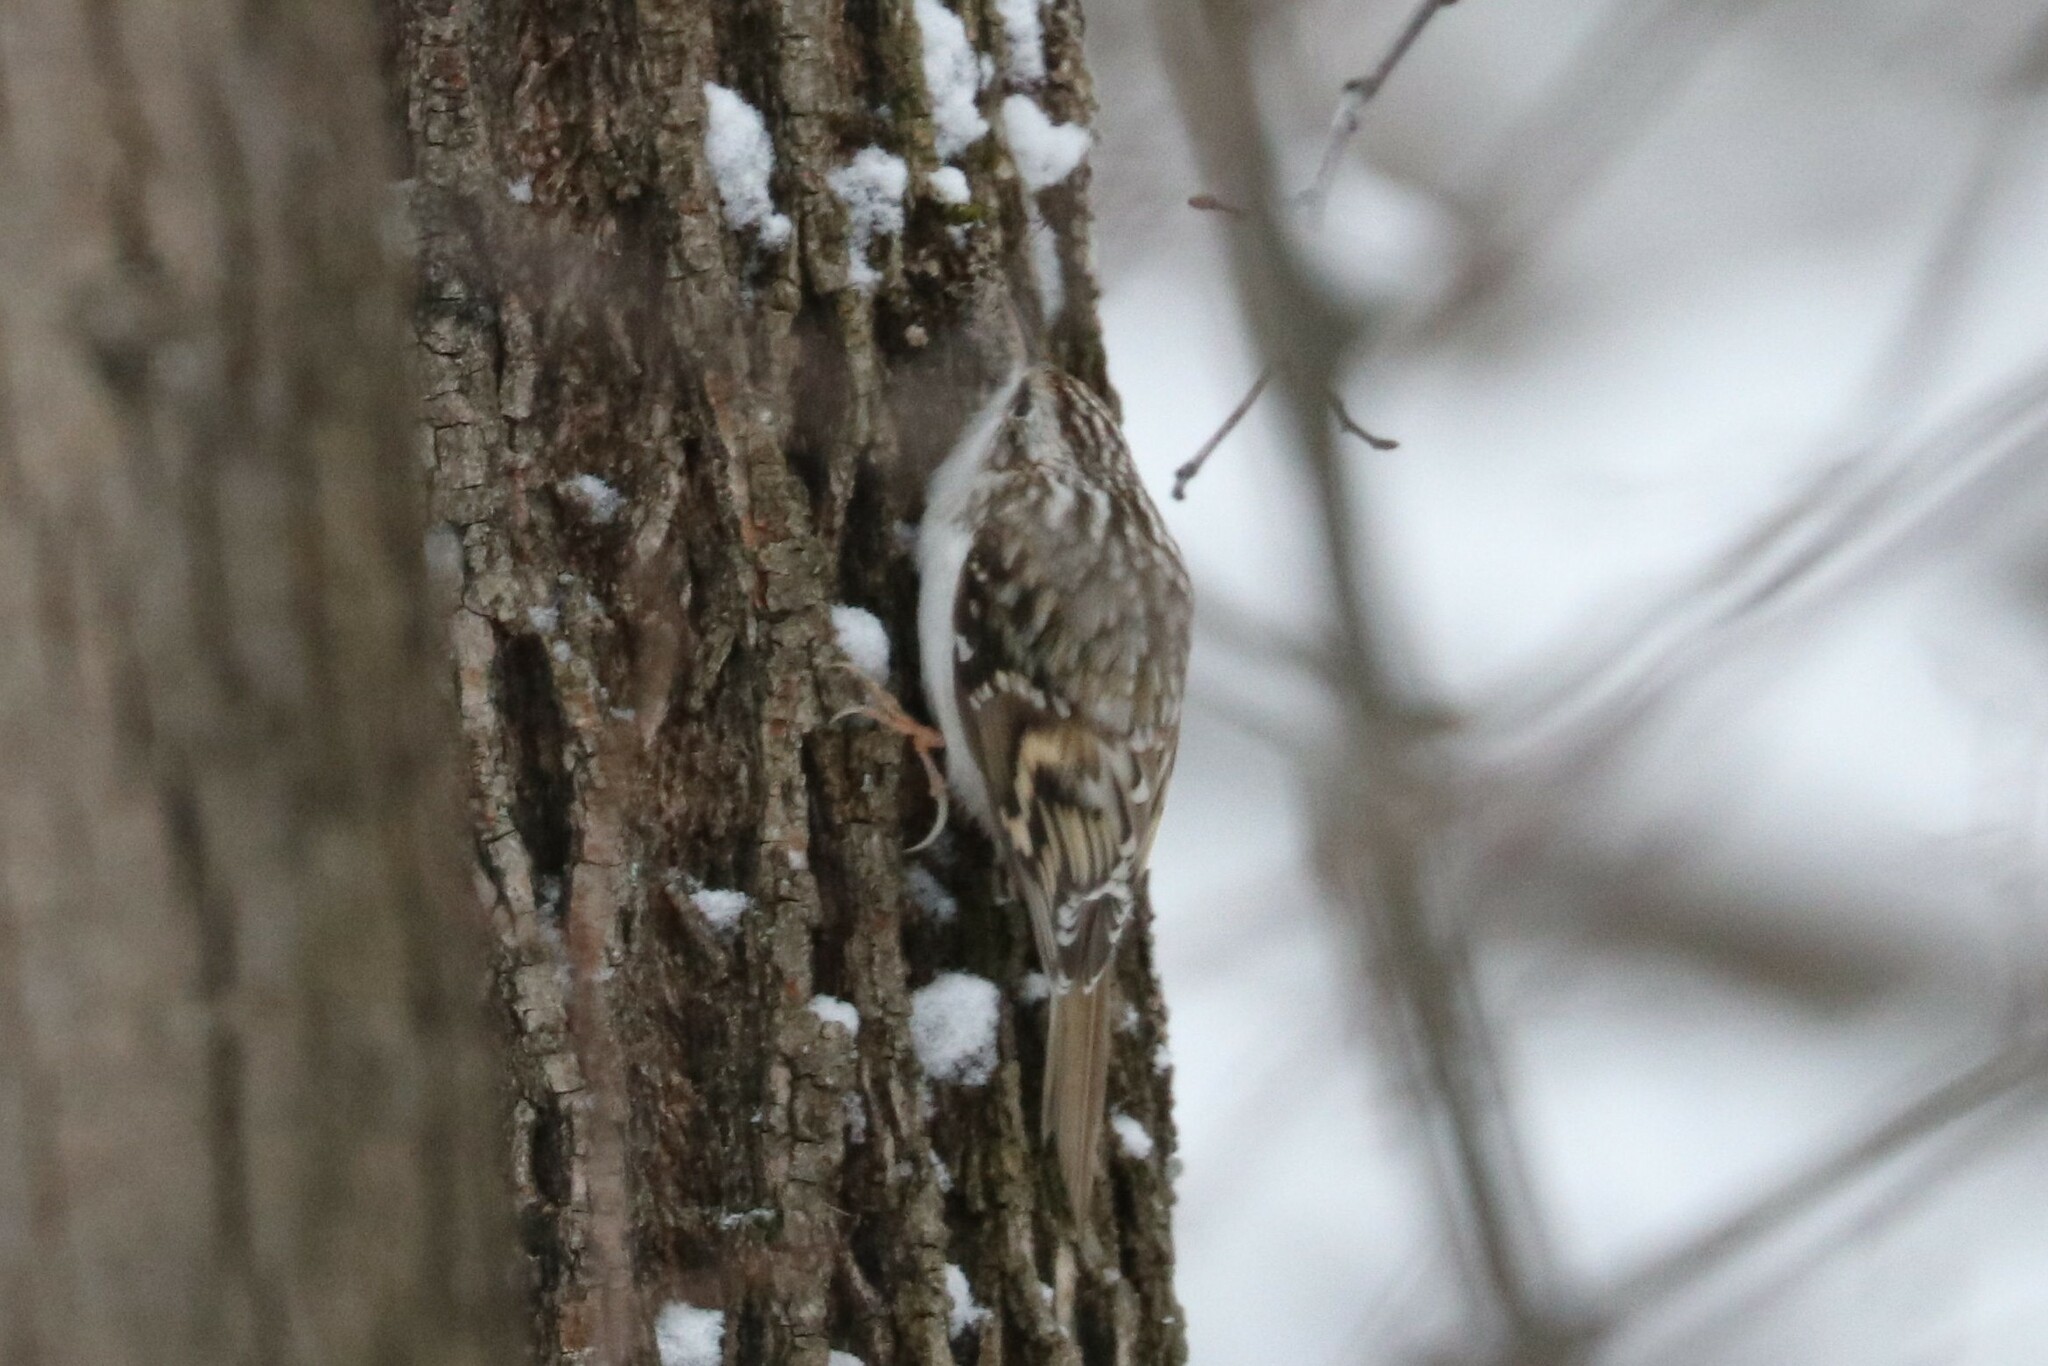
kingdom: Animalia
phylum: Chordata
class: Aves
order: Passeriformes
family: Certhiidae
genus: Certhia
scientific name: Certhia familiaris
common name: Eurasian treecreeper
